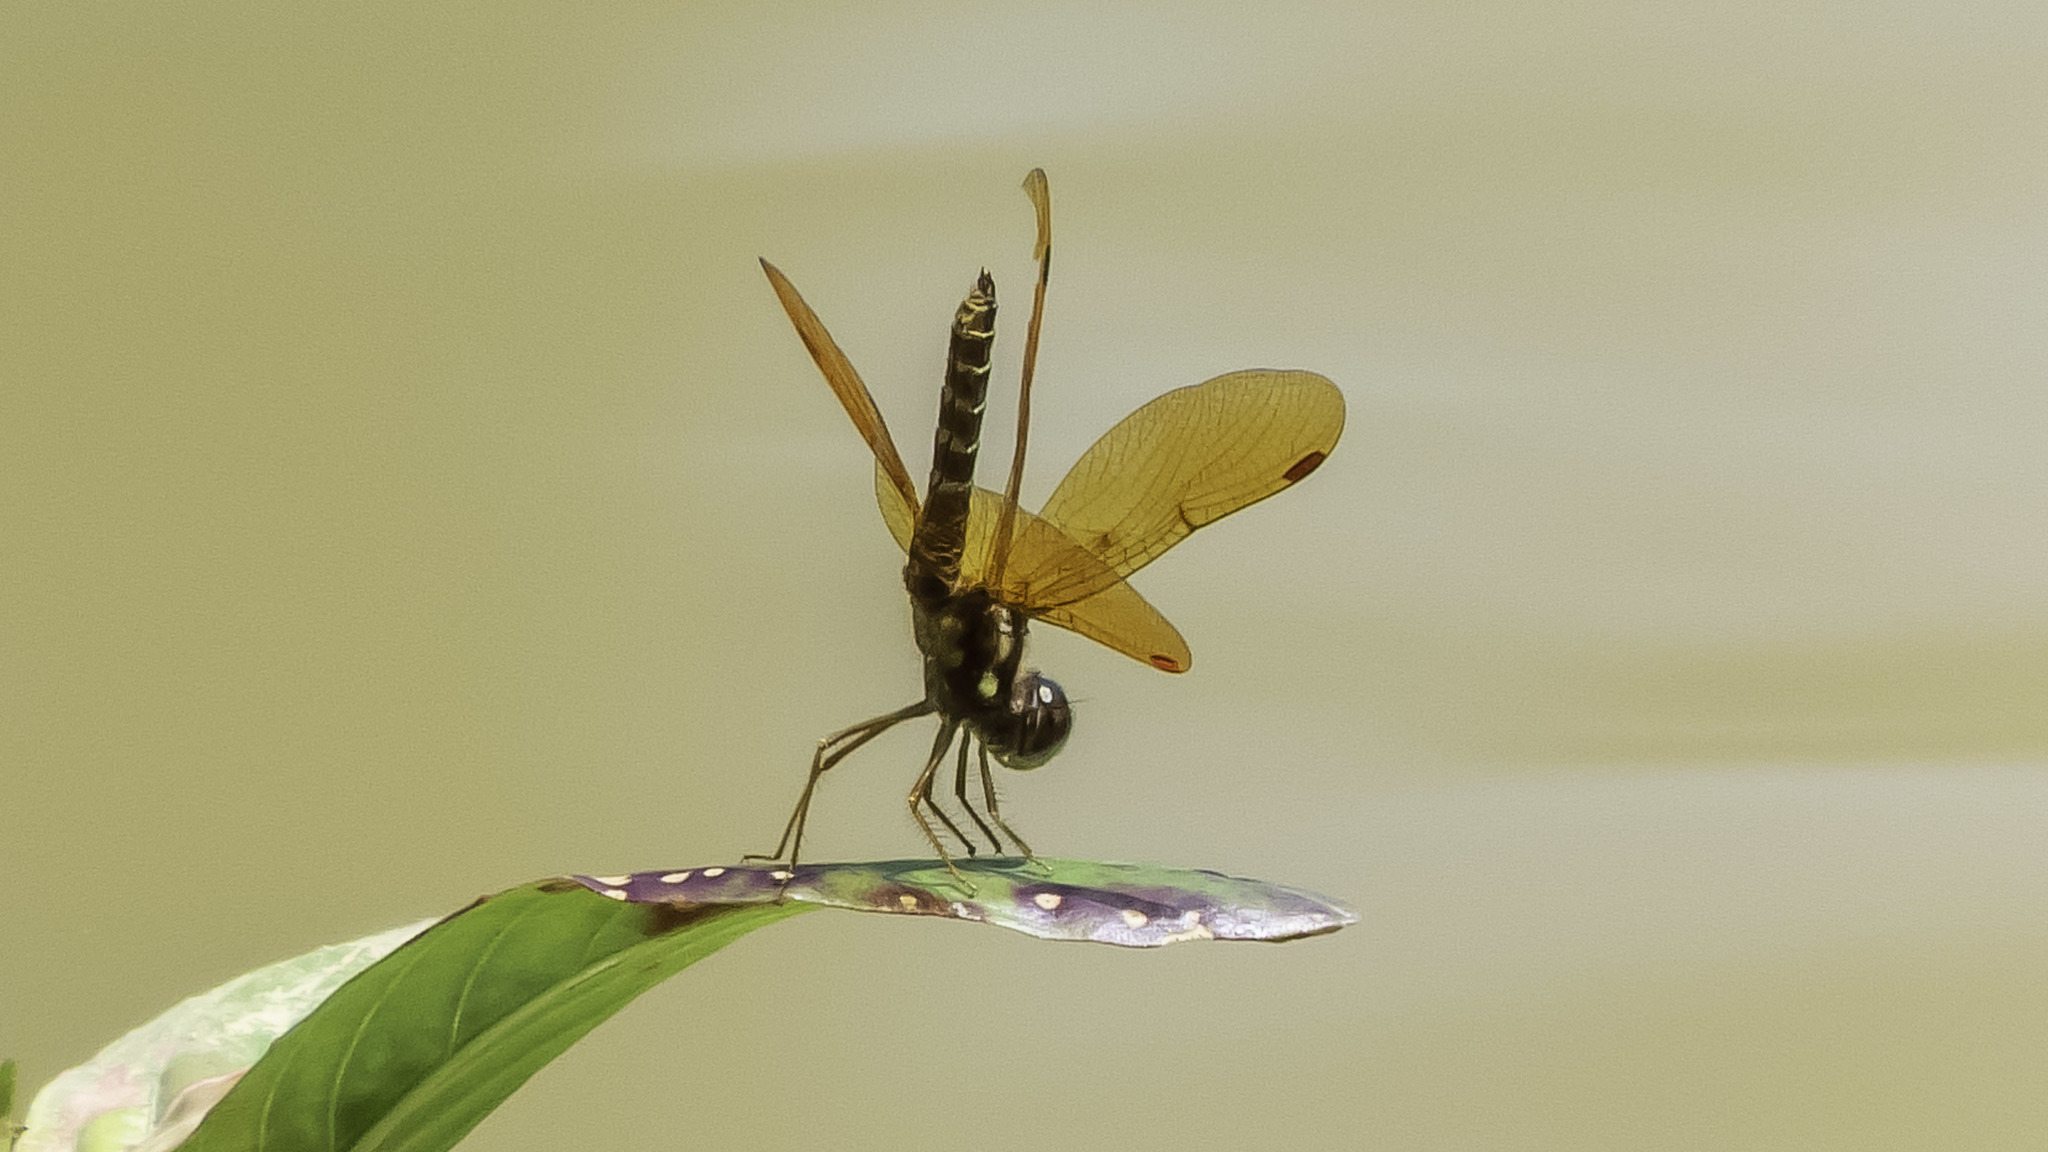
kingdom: Animalia
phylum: Arthropoda
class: Insecta
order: Odonata
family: Libellulidae
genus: Perithemis
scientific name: Perithemis tenera
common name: Eastern amberwing
